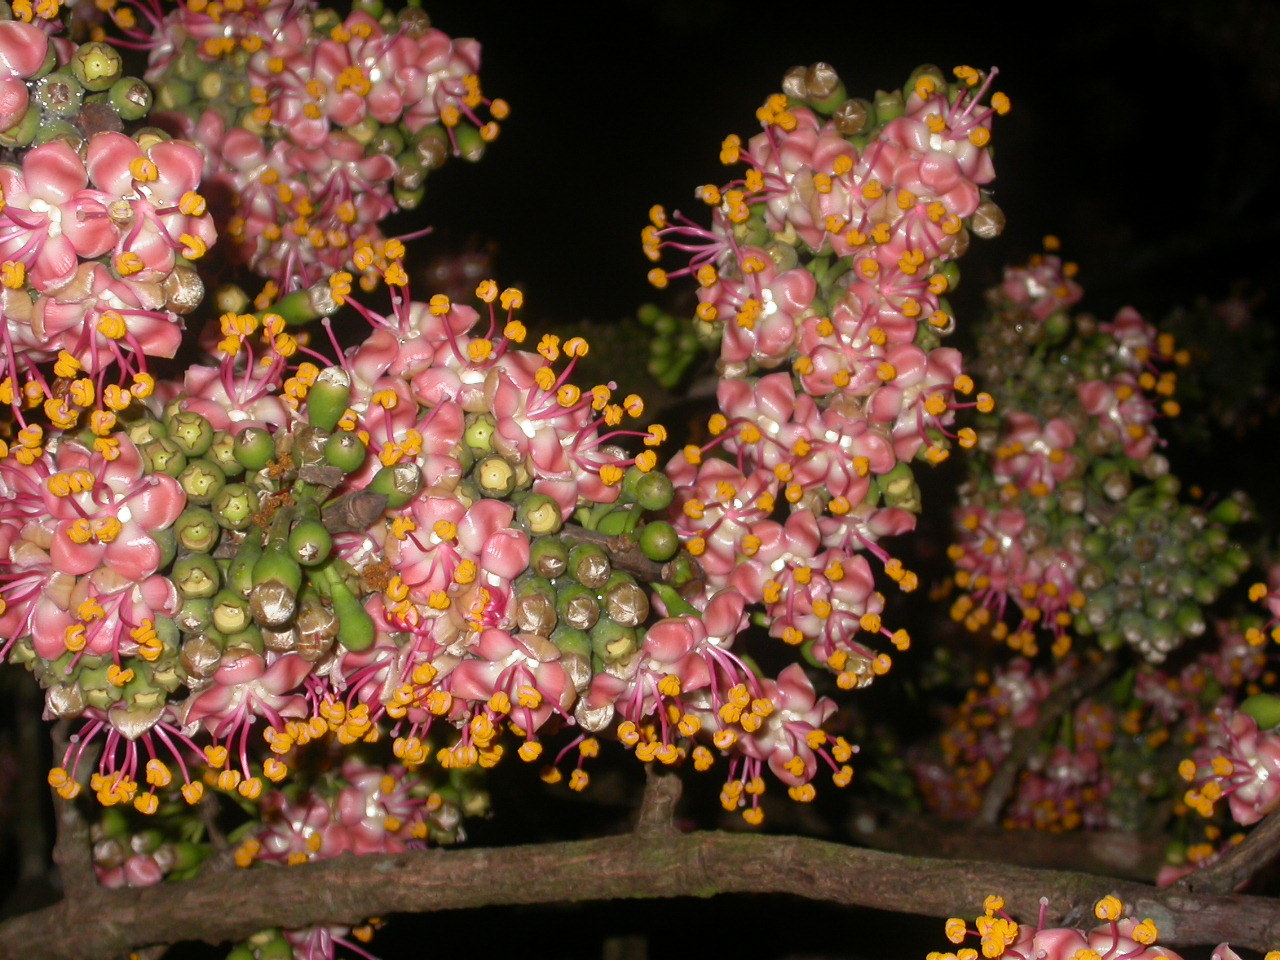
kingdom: Plantae
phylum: Tracheophyta
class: Magnoliopsida
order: Malvales
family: Malvaceae
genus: Ceiba
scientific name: Ceiba pentandra
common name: Kapok
